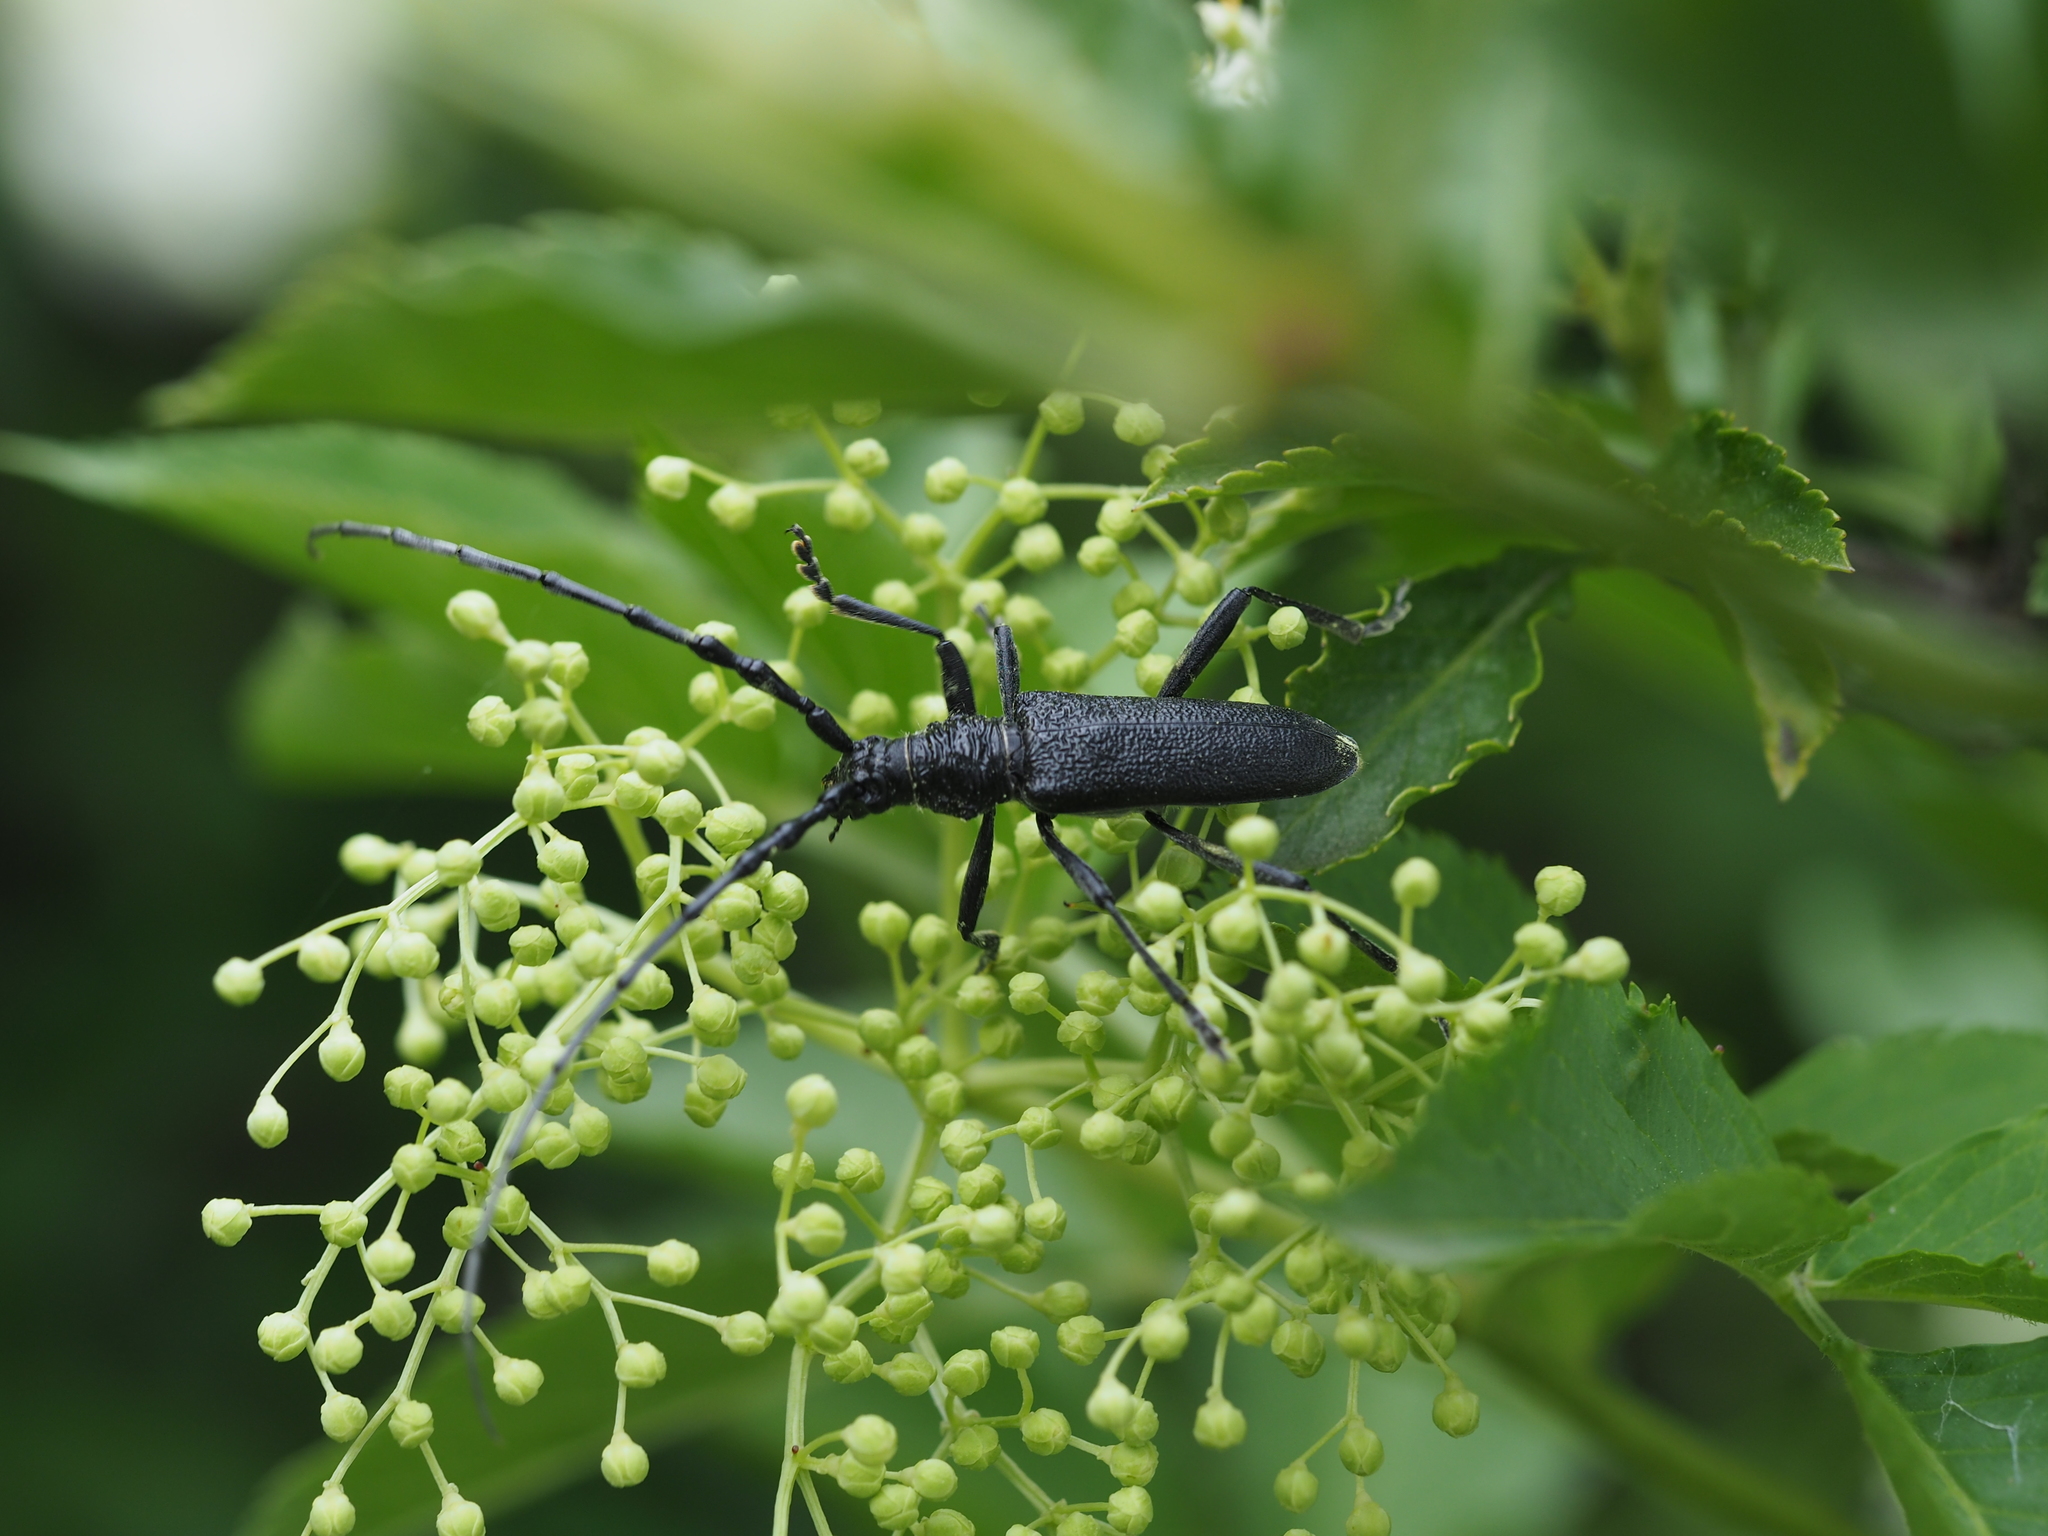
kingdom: Animalia
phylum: Arthropoda
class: Insecta
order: Coleoptera
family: Cerambycidae
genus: Cerambyx
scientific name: Cerambyx scopolii
